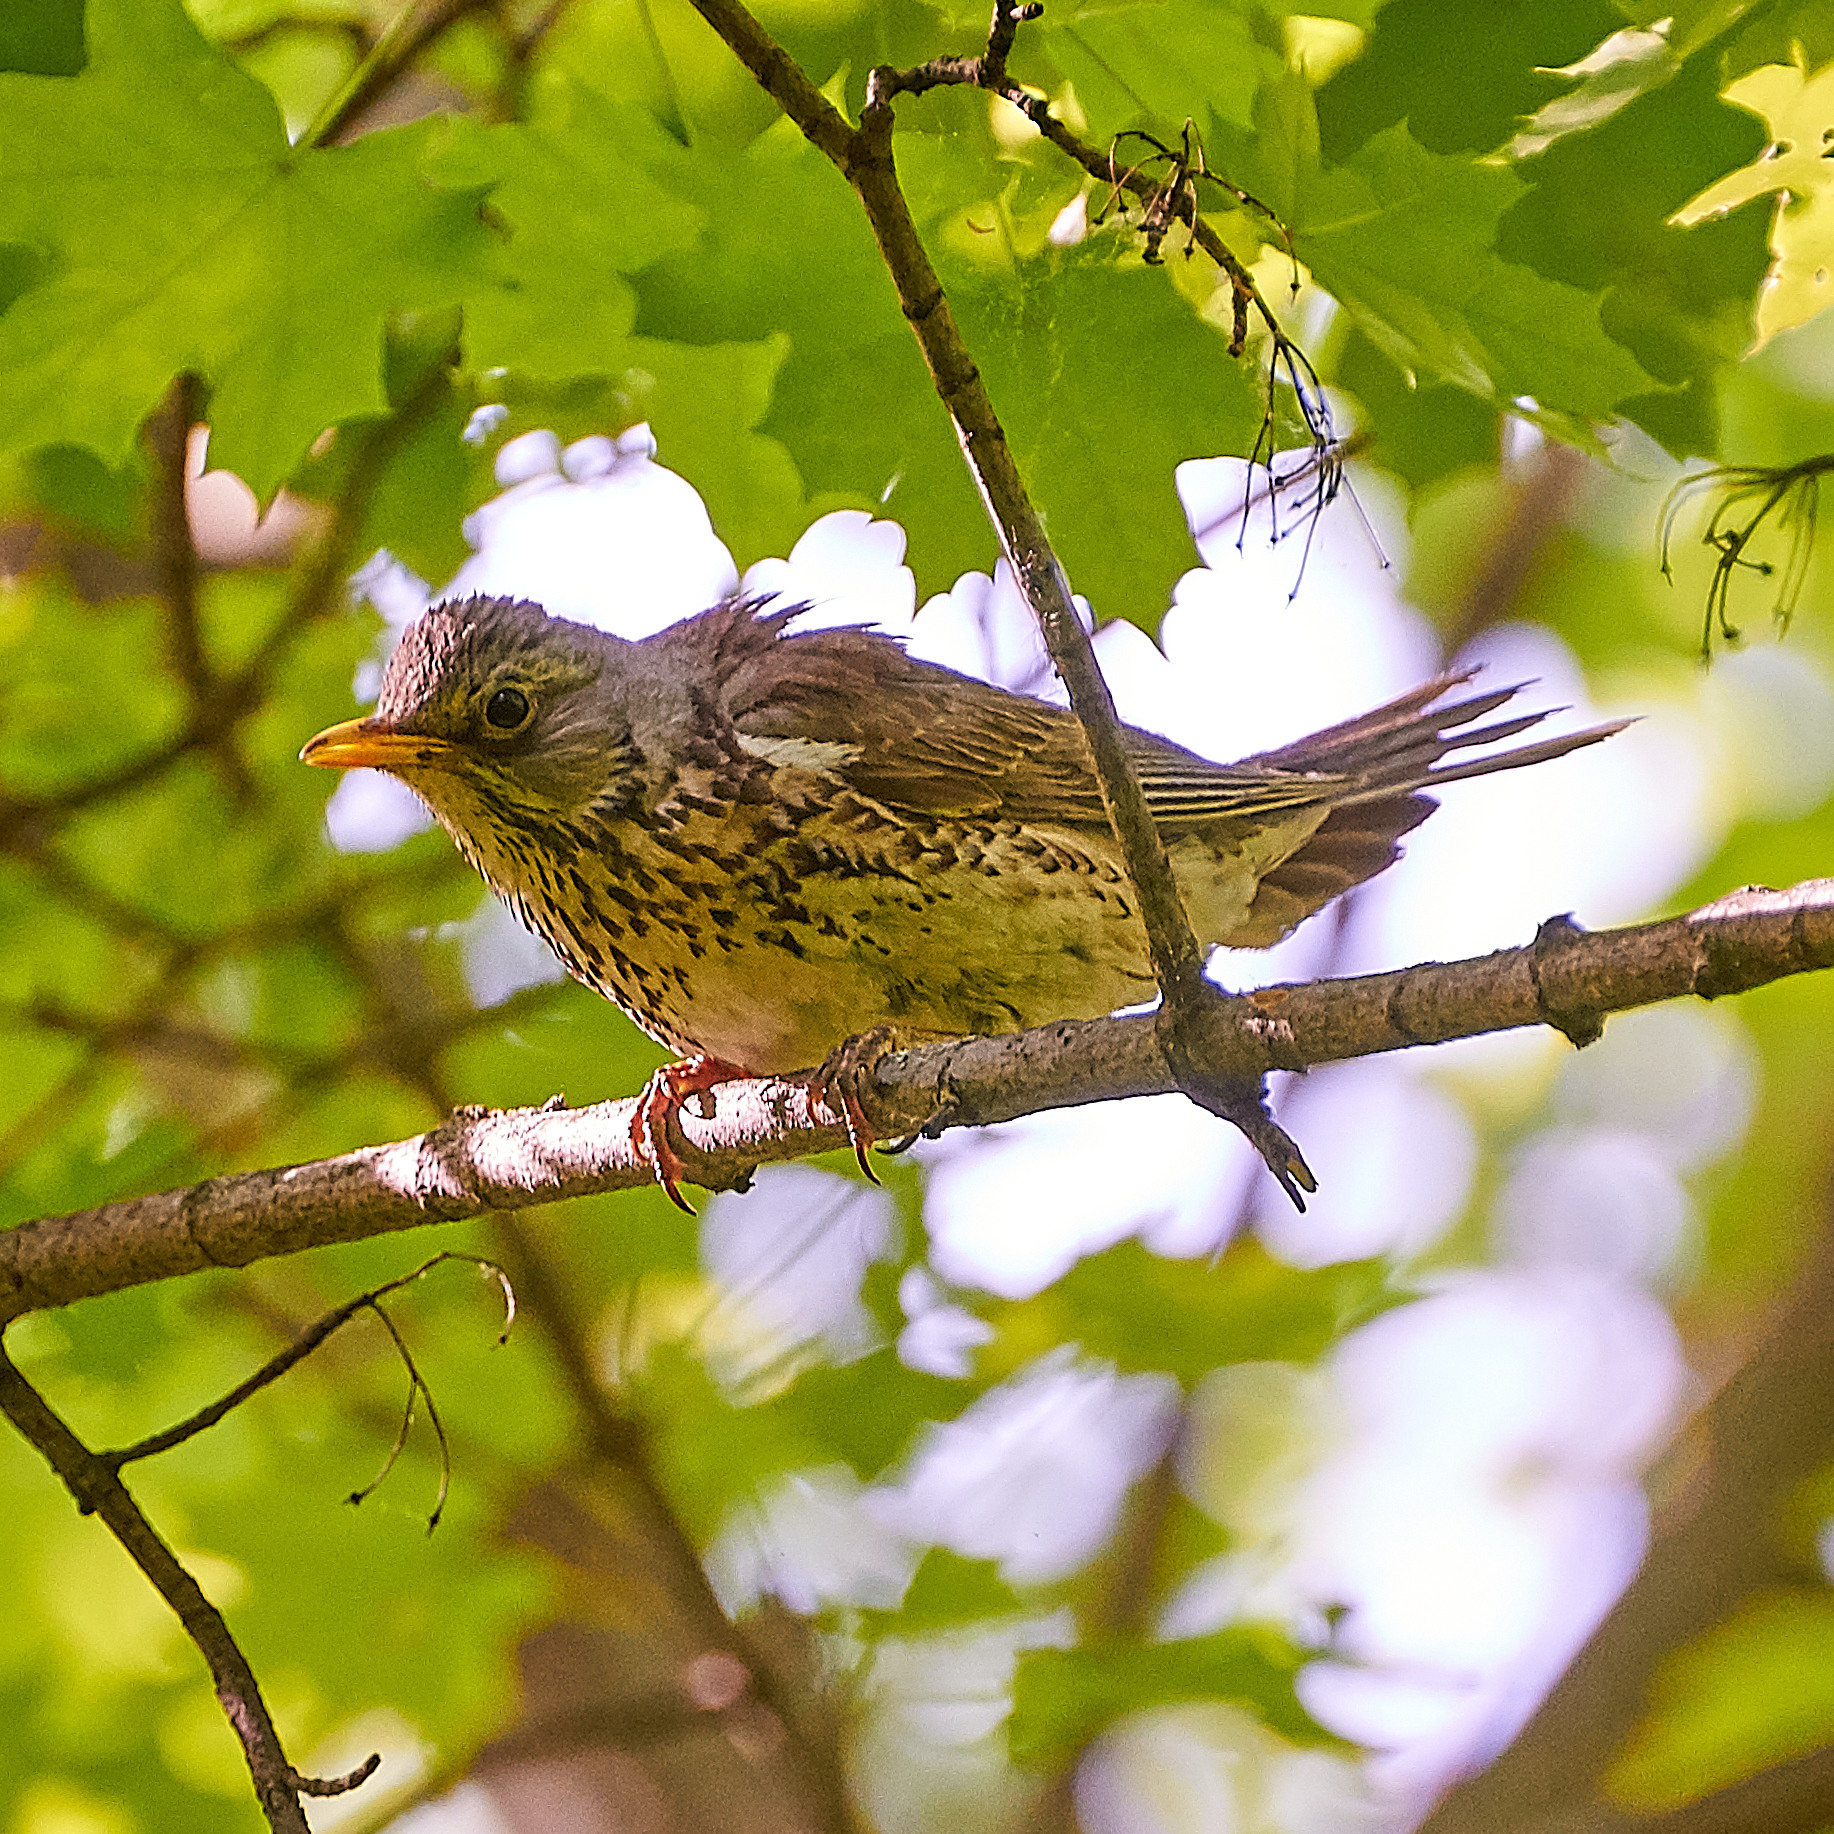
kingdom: Animalia
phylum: Chordata
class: Aves
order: Passeriformes
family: Turdidae
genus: Turdus
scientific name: Turdus pilaris
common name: Fieldfare
